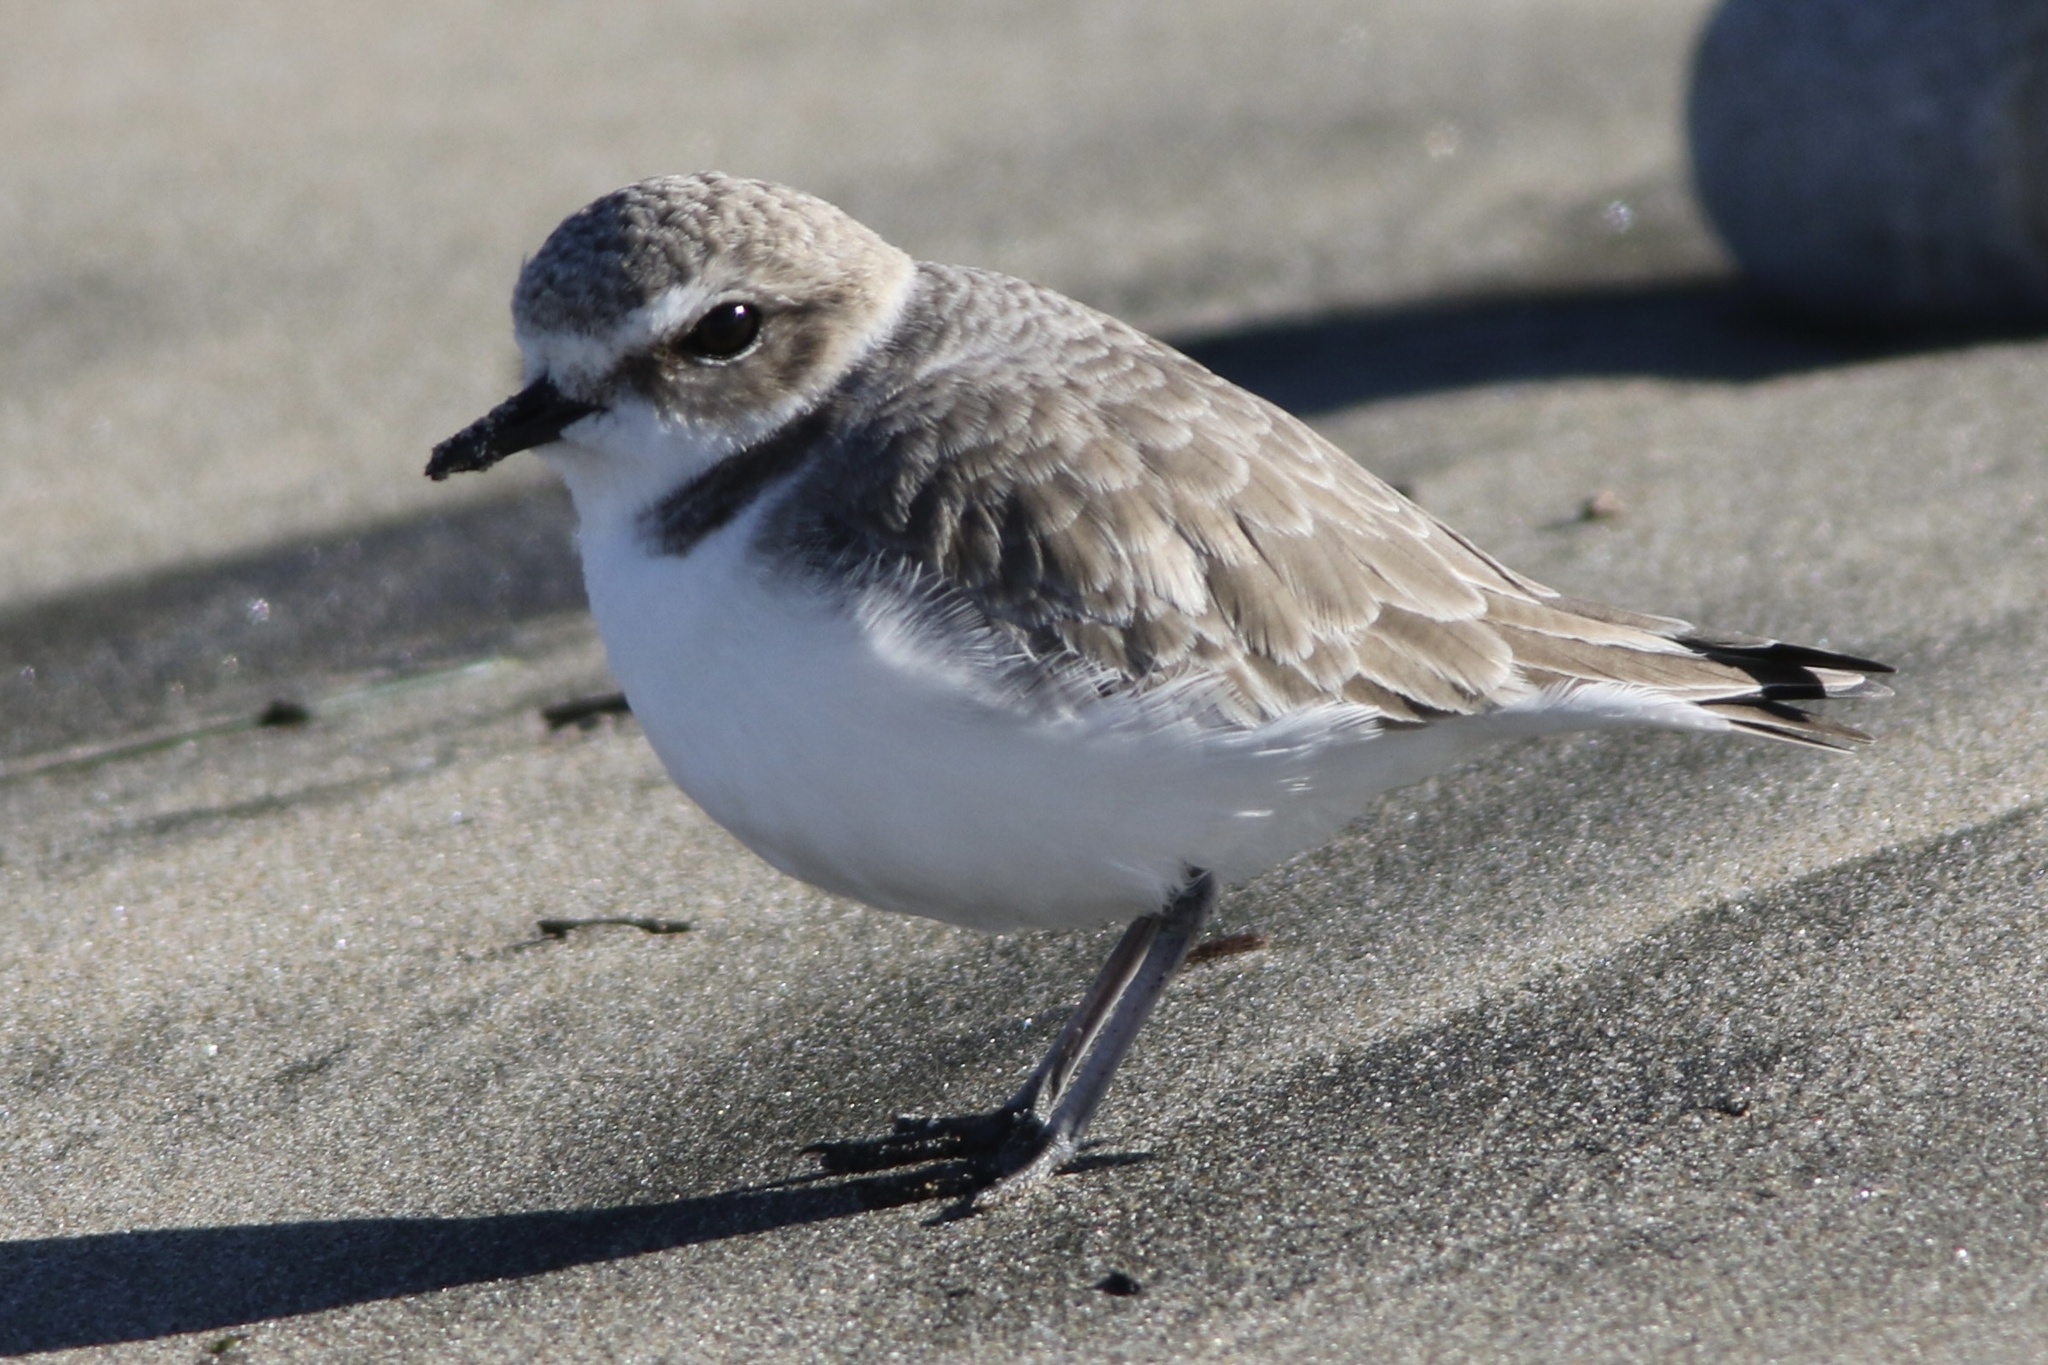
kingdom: Animalia
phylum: Chordata
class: Aves
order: Charadriiformes
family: Charadriidae
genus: Anarhynchus
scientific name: Anarhynchus
